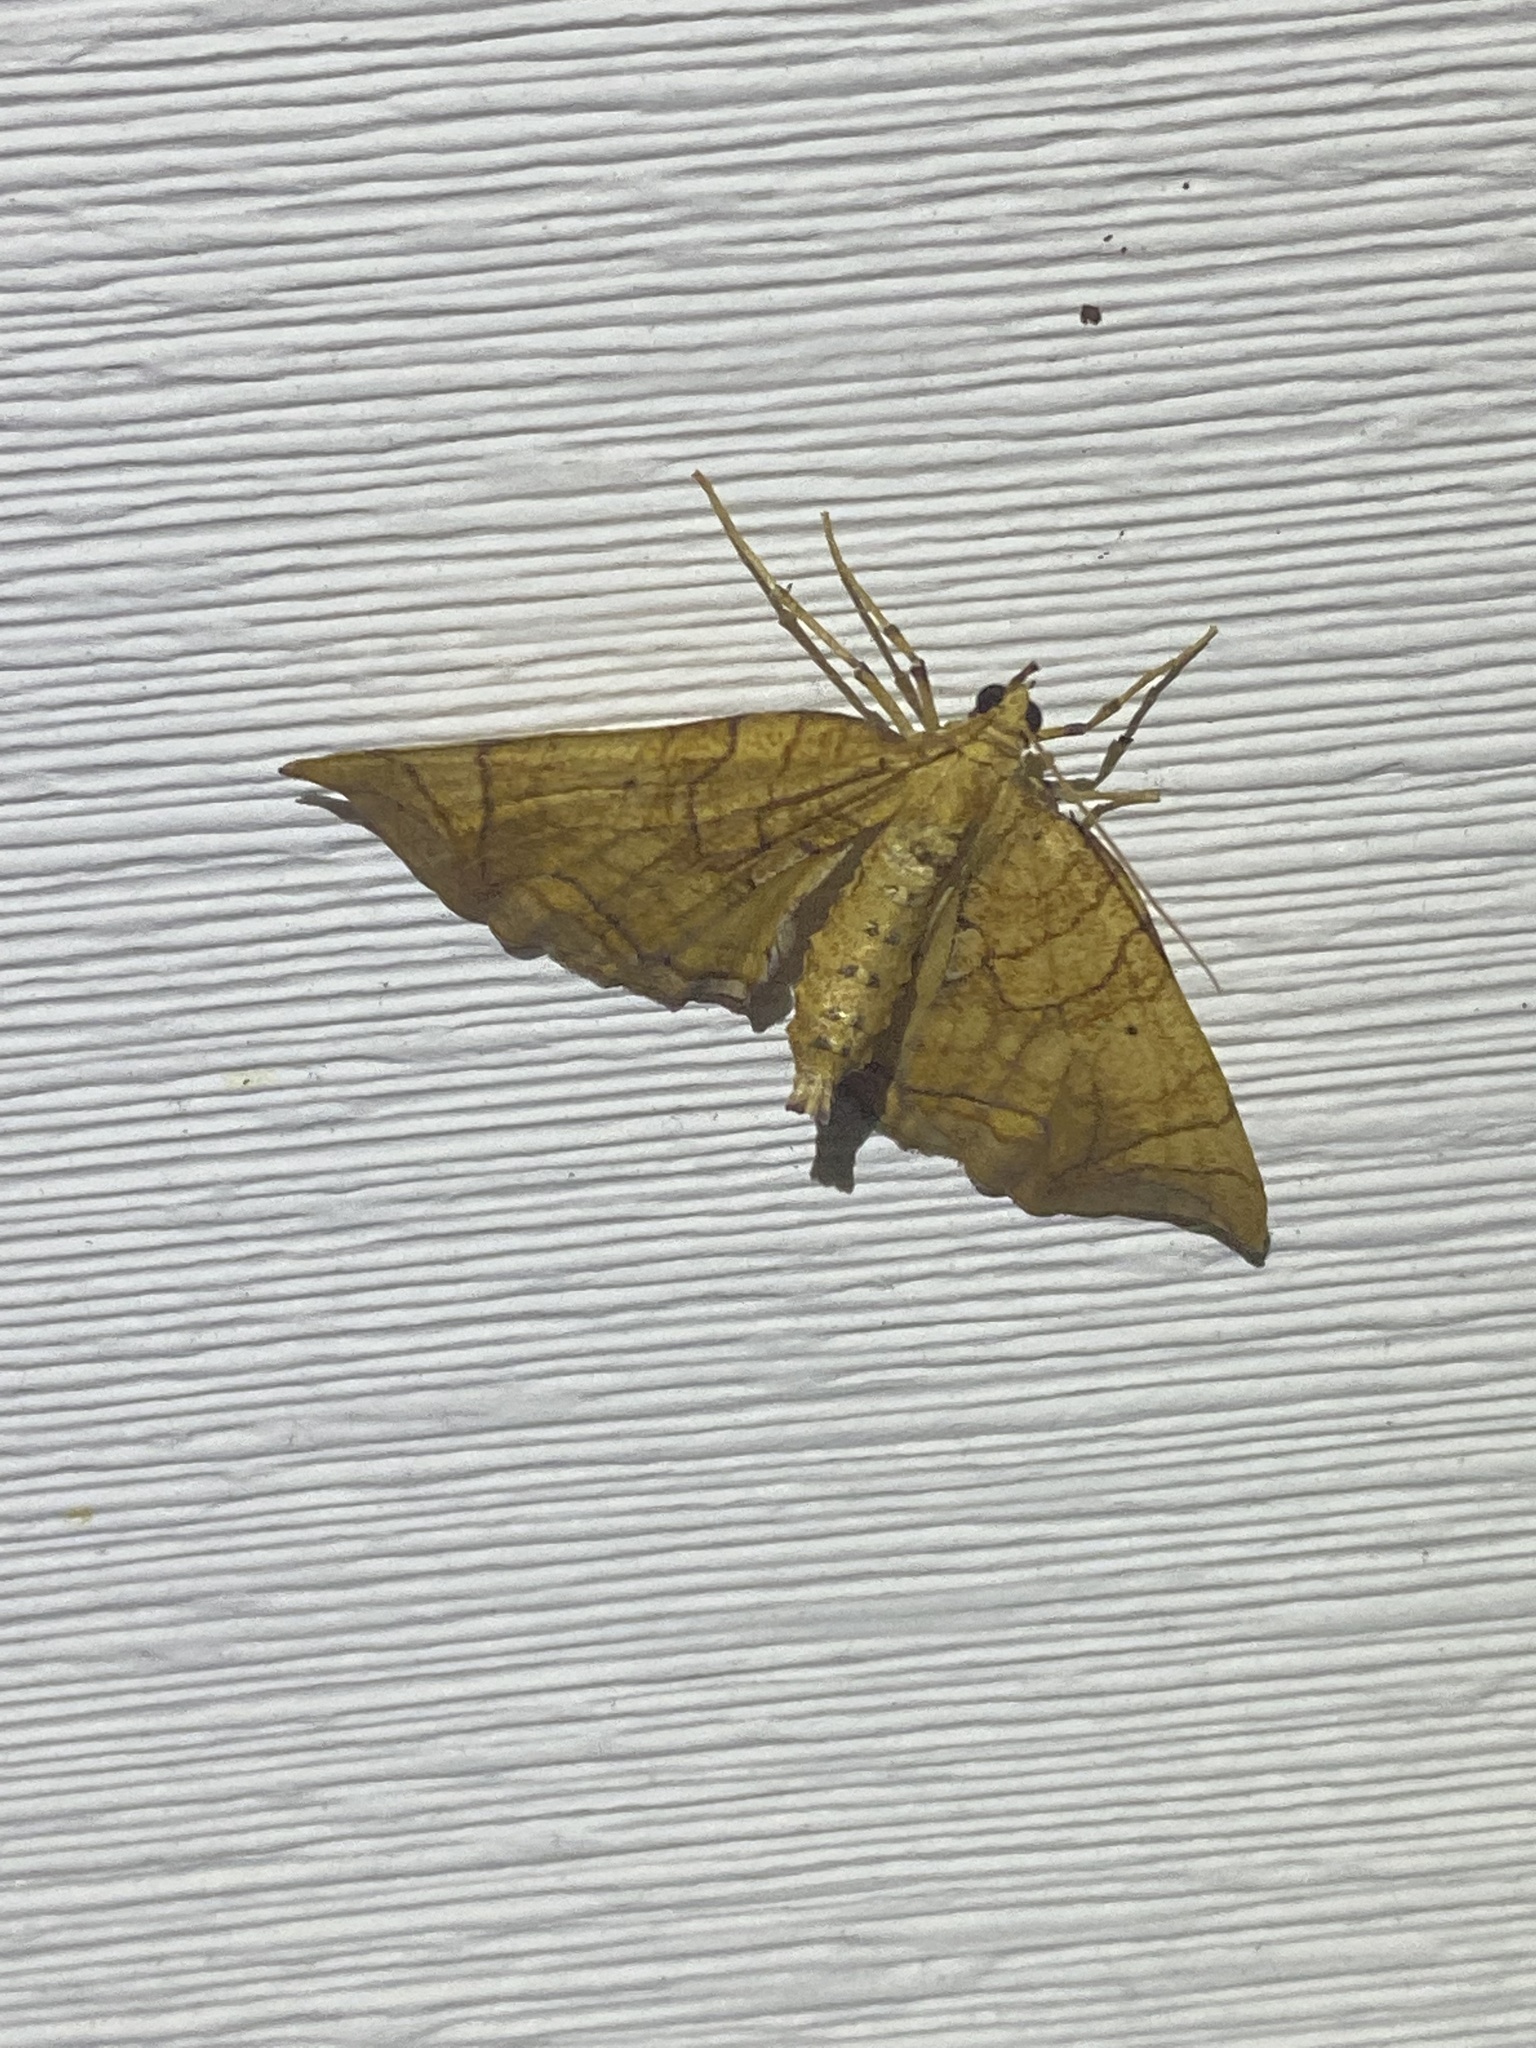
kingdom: Animalia
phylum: Arthropoda
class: Insecta
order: Lepidoptera
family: Geometridae
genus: Eulithis
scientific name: Eulithis
